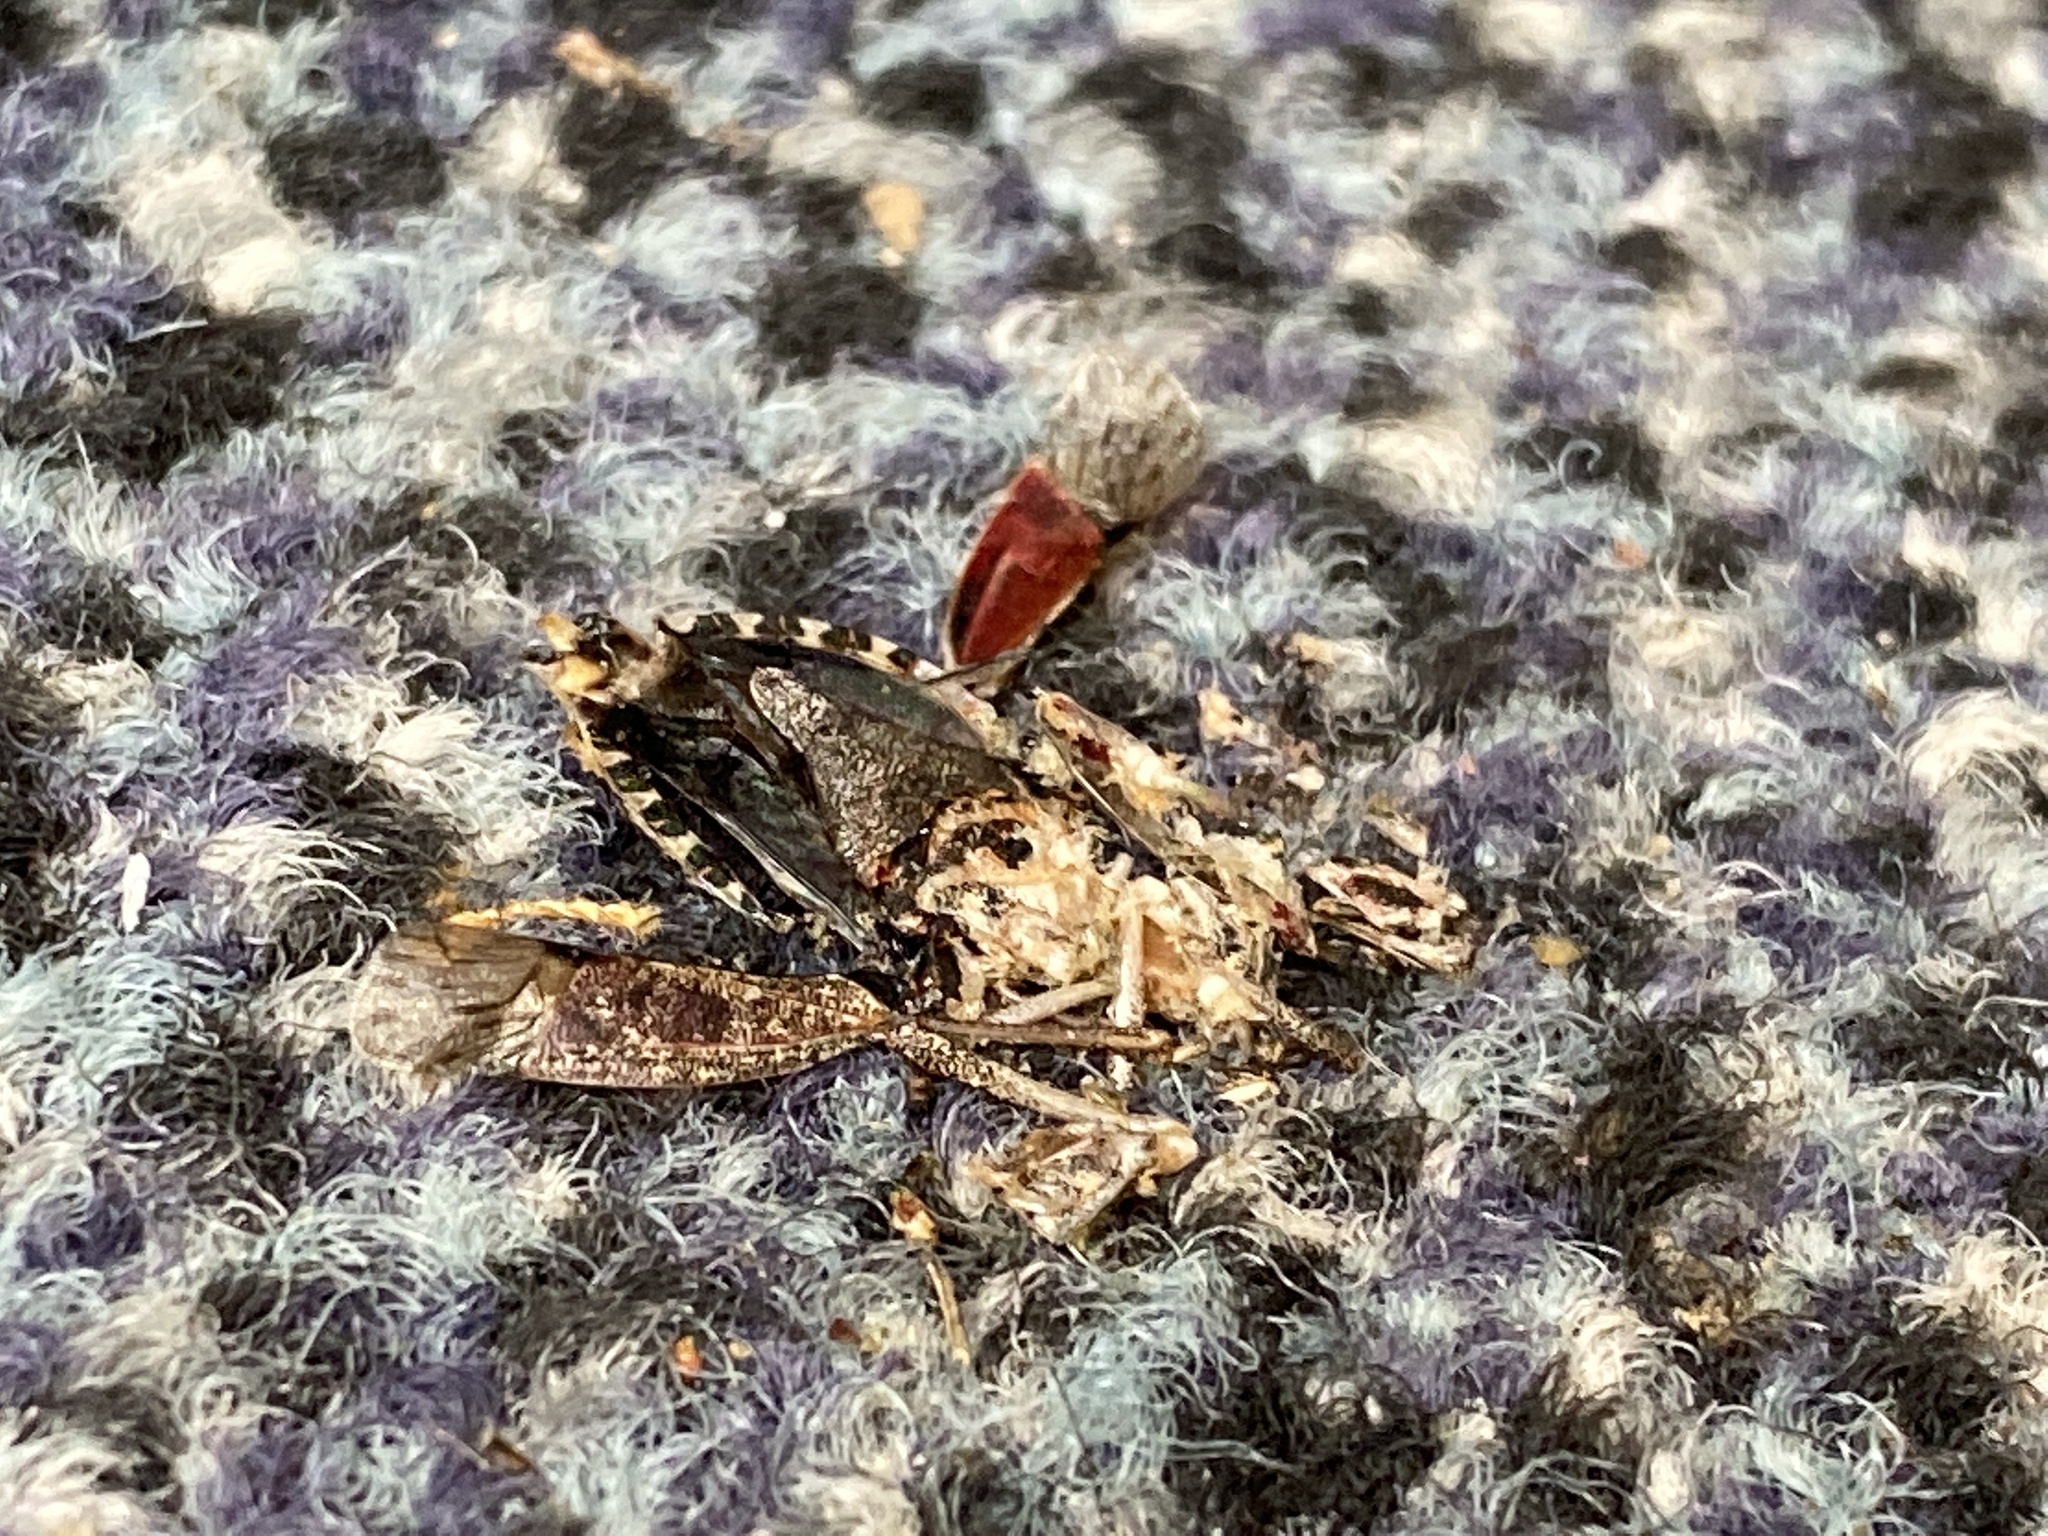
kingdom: Animalia
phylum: Arthropoda
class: Insecta
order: Hemiptera
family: Pentatomidae
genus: Halyomorpha
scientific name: Halyomorpha halys
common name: Brown marmorated stink bug
